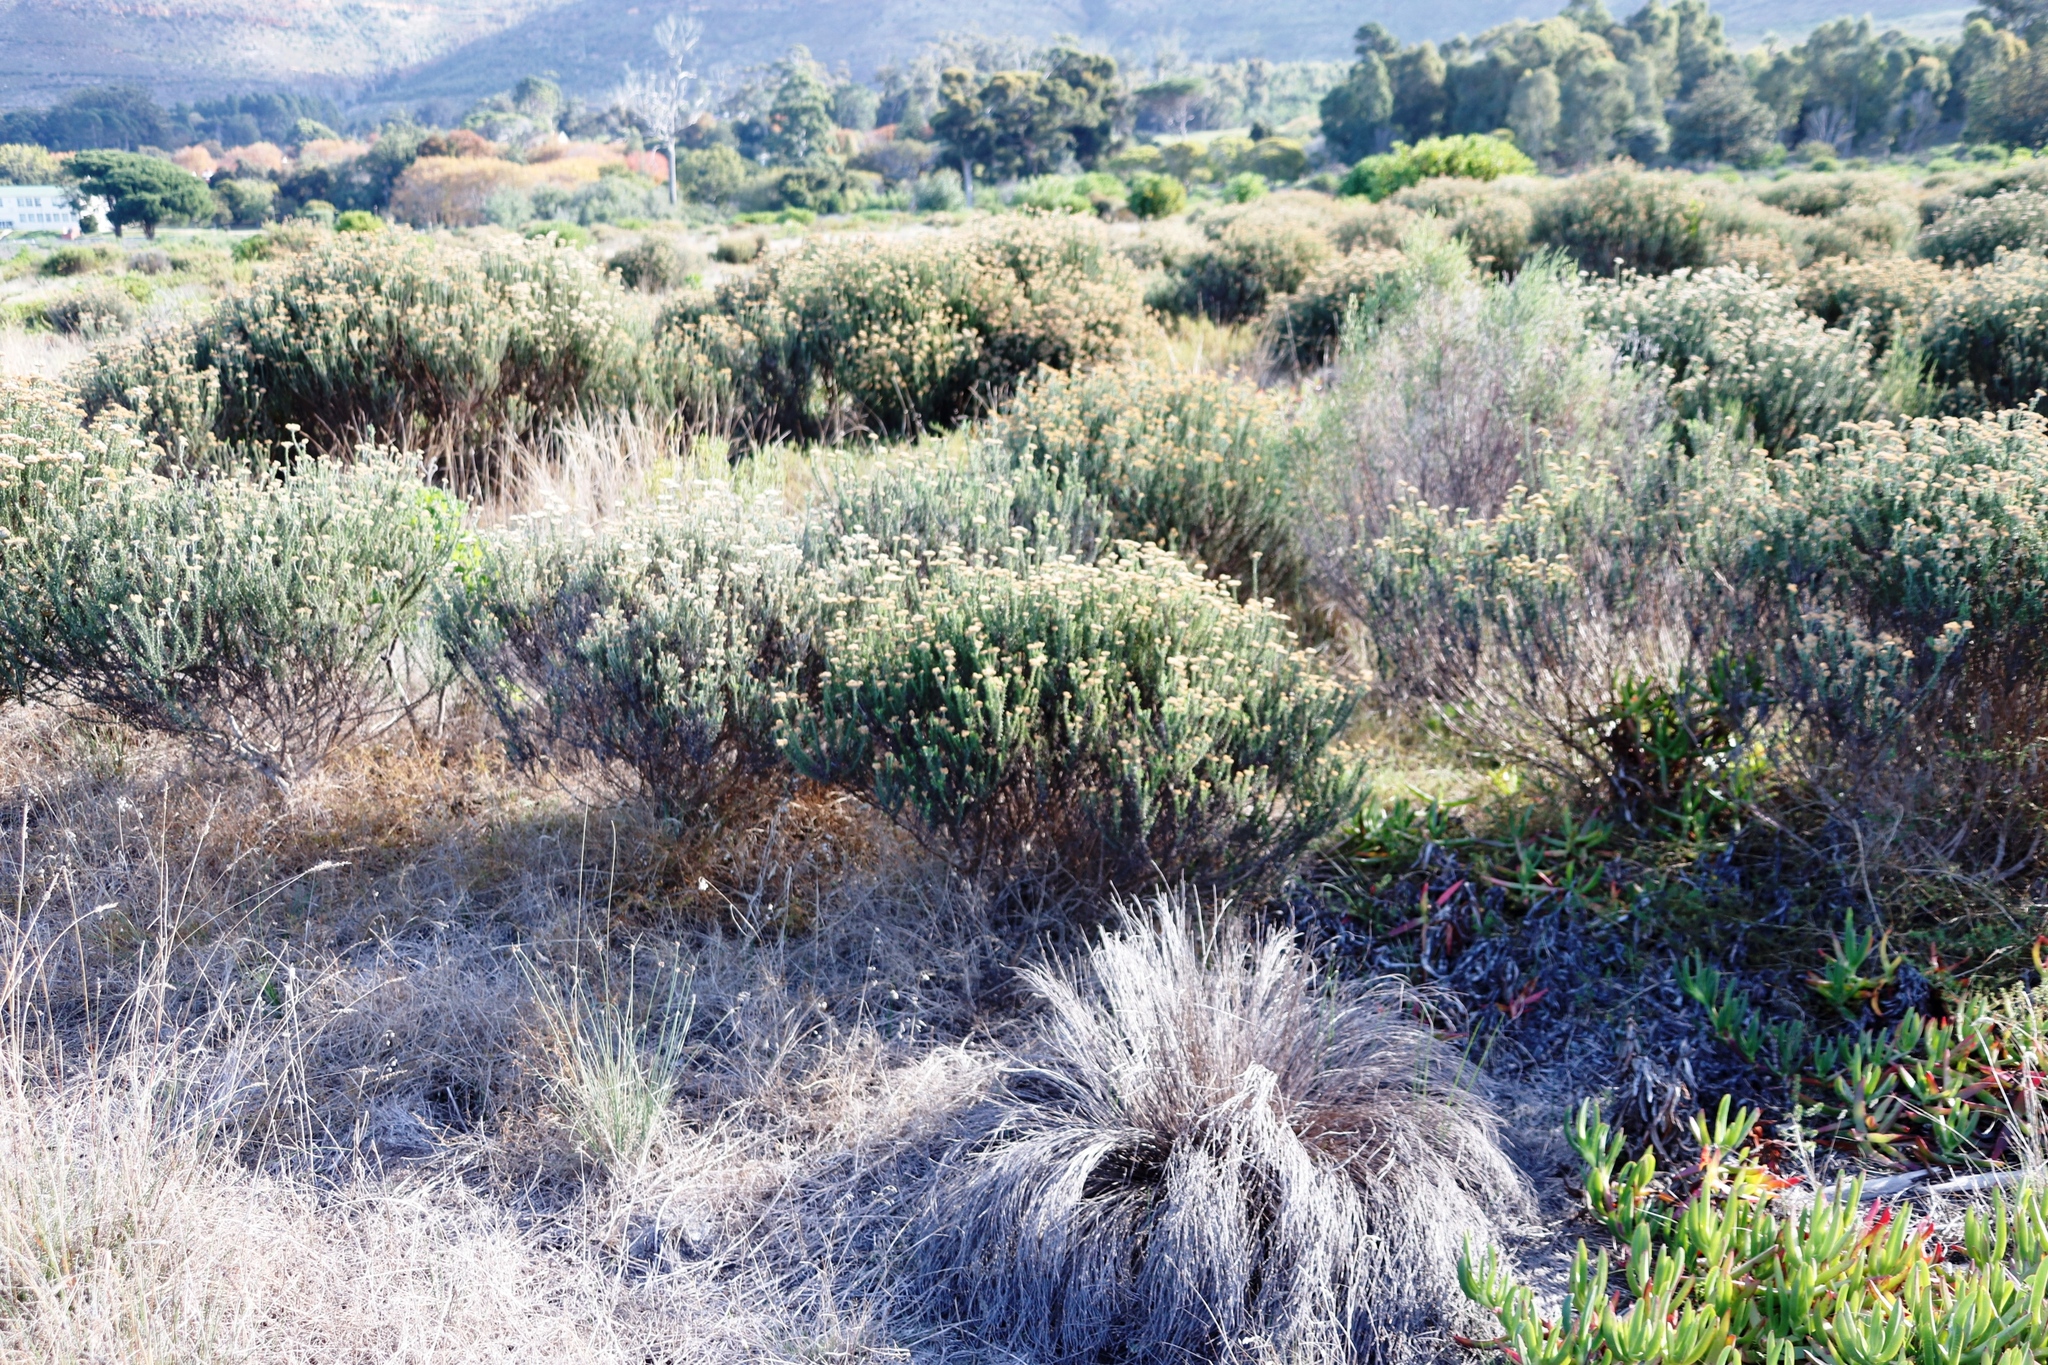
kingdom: Plantae
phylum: Tracheophyta
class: Magnoliopsida
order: Asterales
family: Asteraceae
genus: Metalasia
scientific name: Metalasia densa
